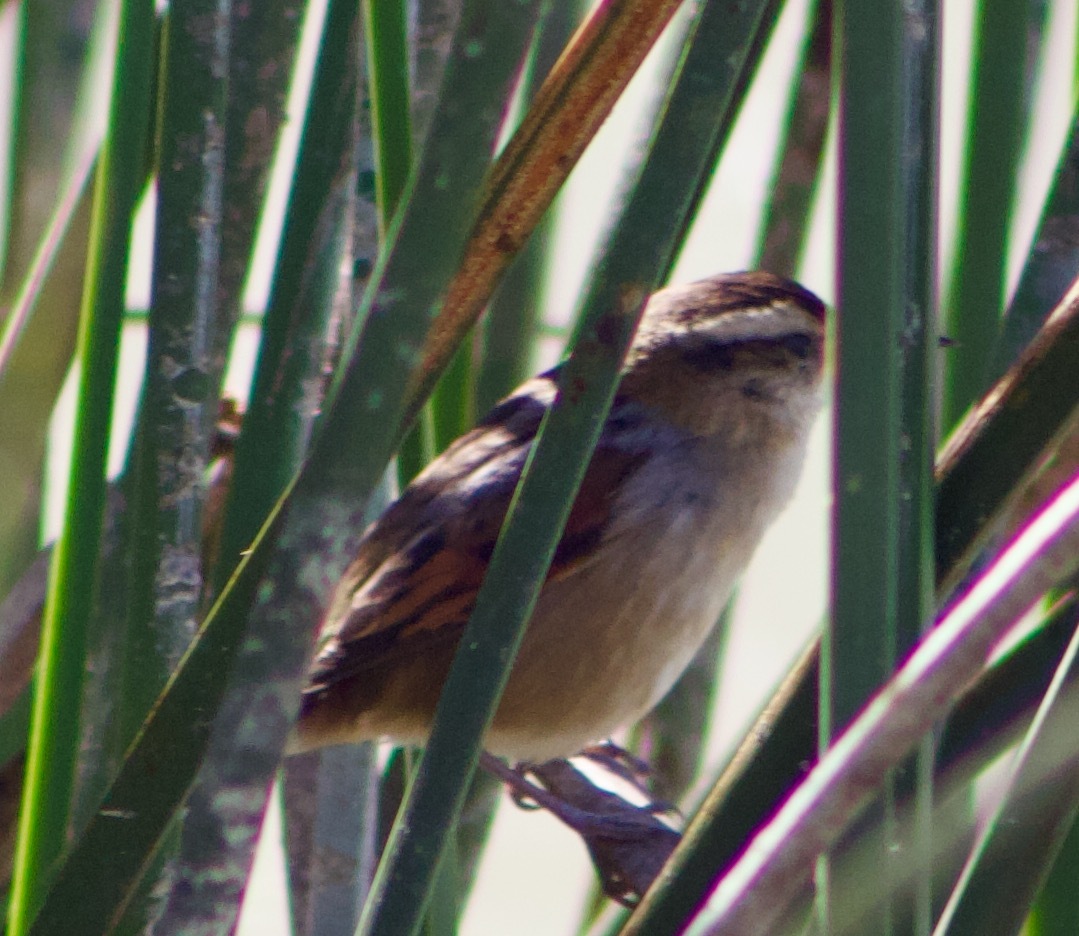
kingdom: Animalia
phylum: Chordata
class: Aves
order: Passeriformes
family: Furnariidae
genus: Phleocryptes
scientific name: Phleocryptes melanops
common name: Wren-like rushbird
